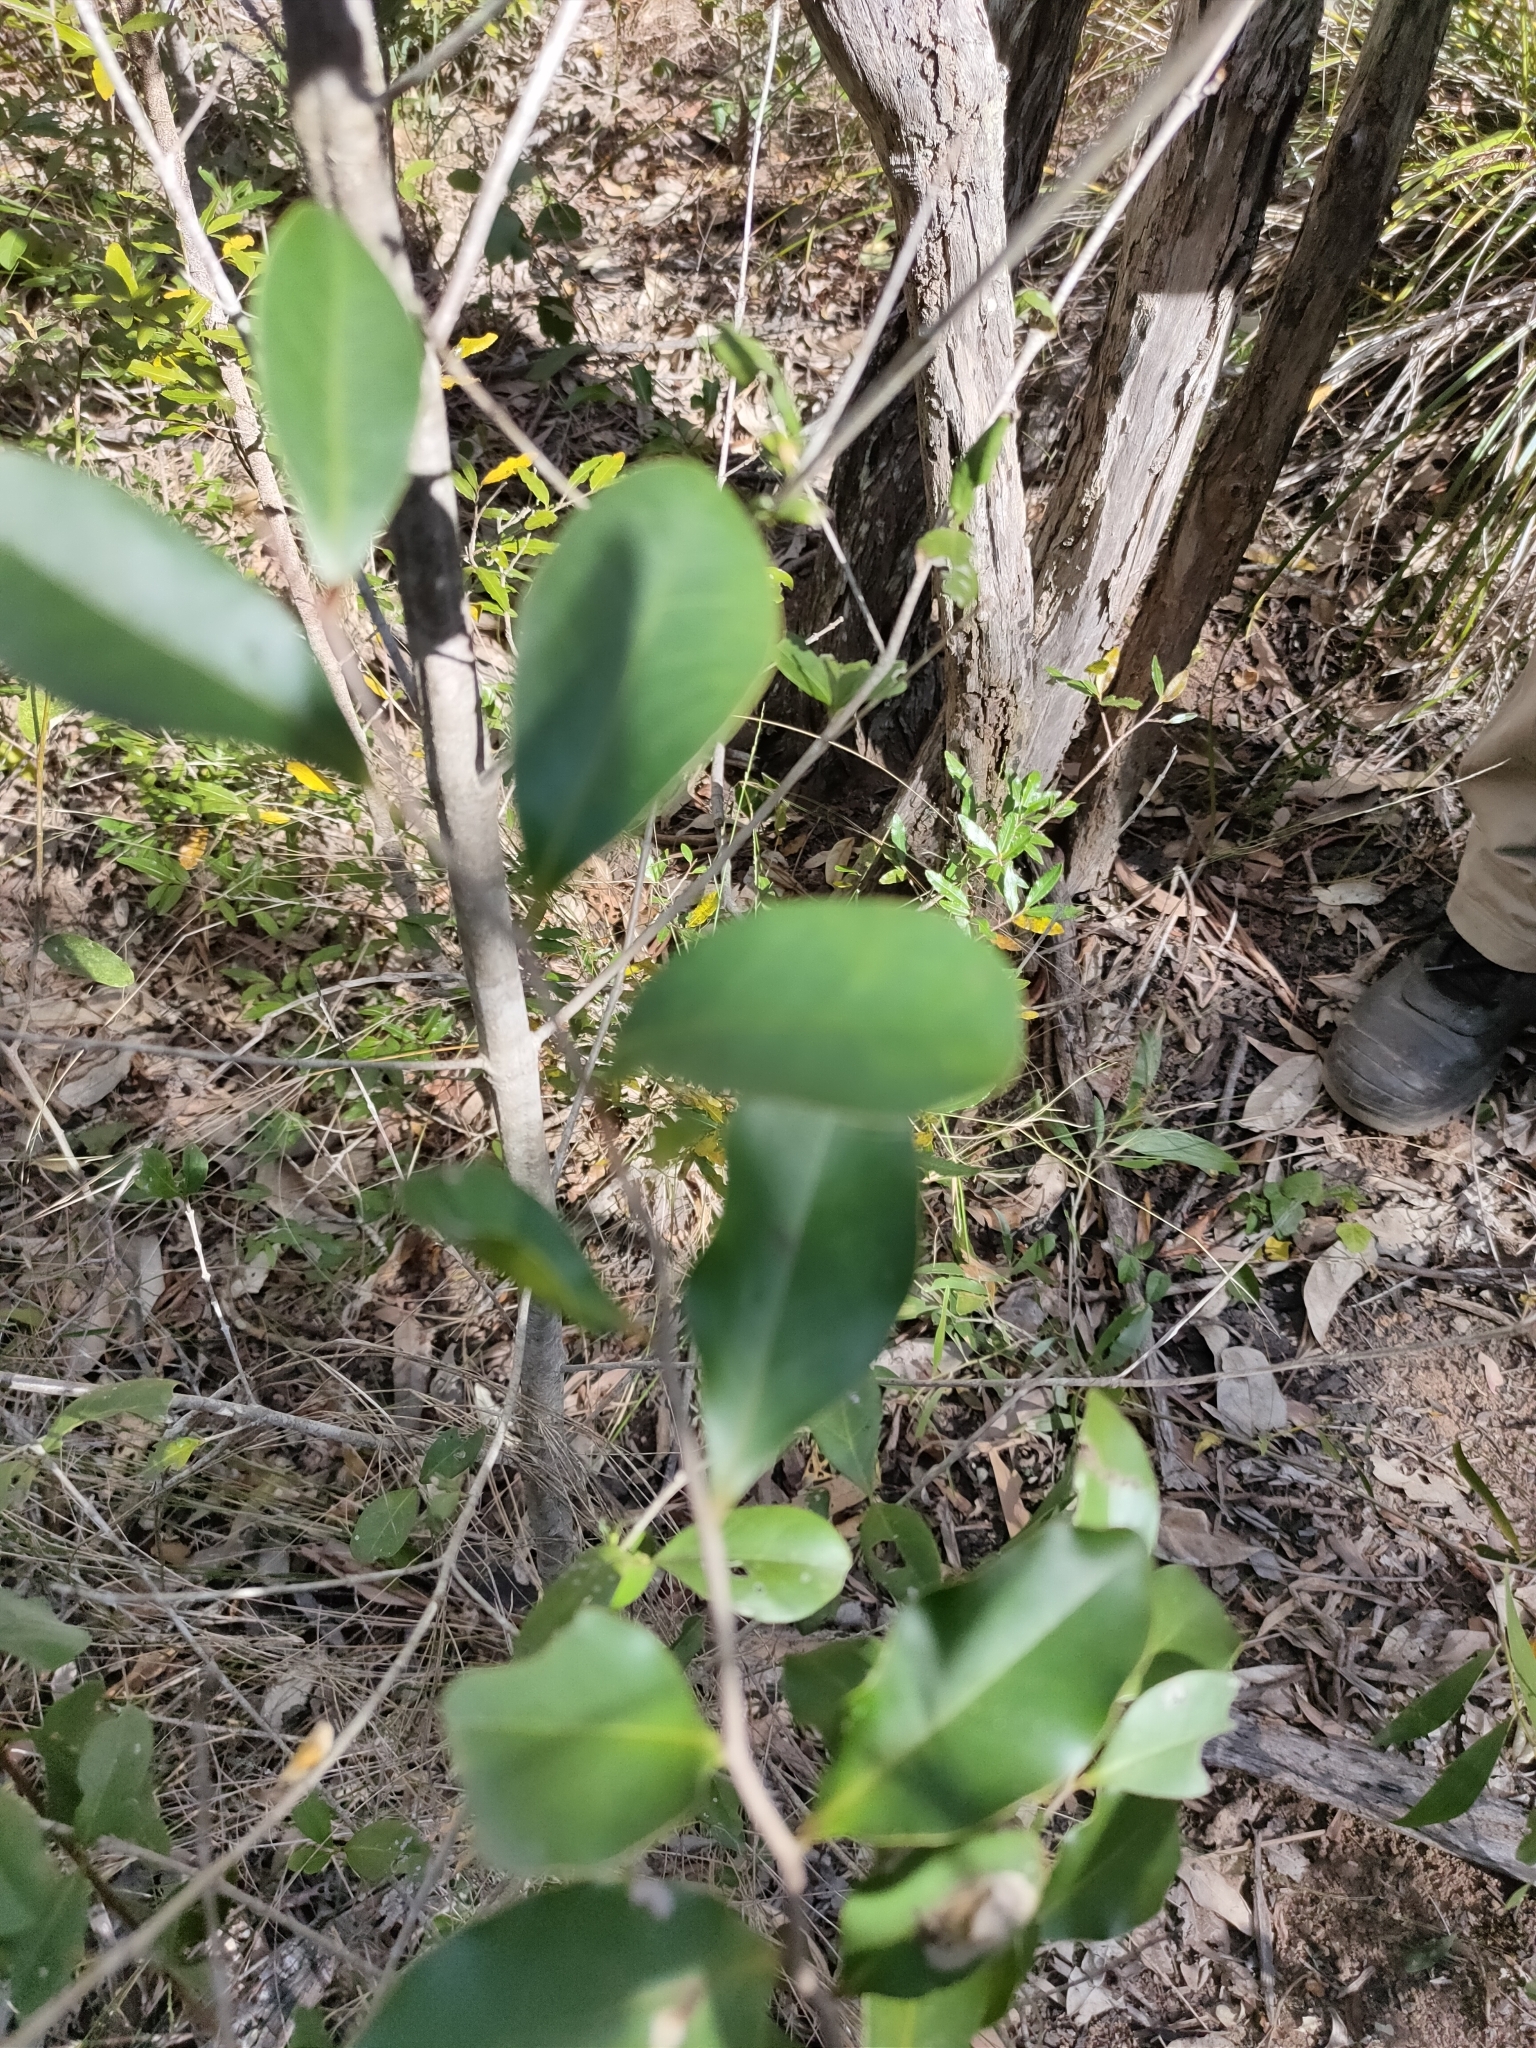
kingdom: Plantae
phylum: Tracheophyta
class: Magnoliopsida
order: Ericales
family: Ebenaceae
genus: Diospyros
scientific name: Diospyros geminata
